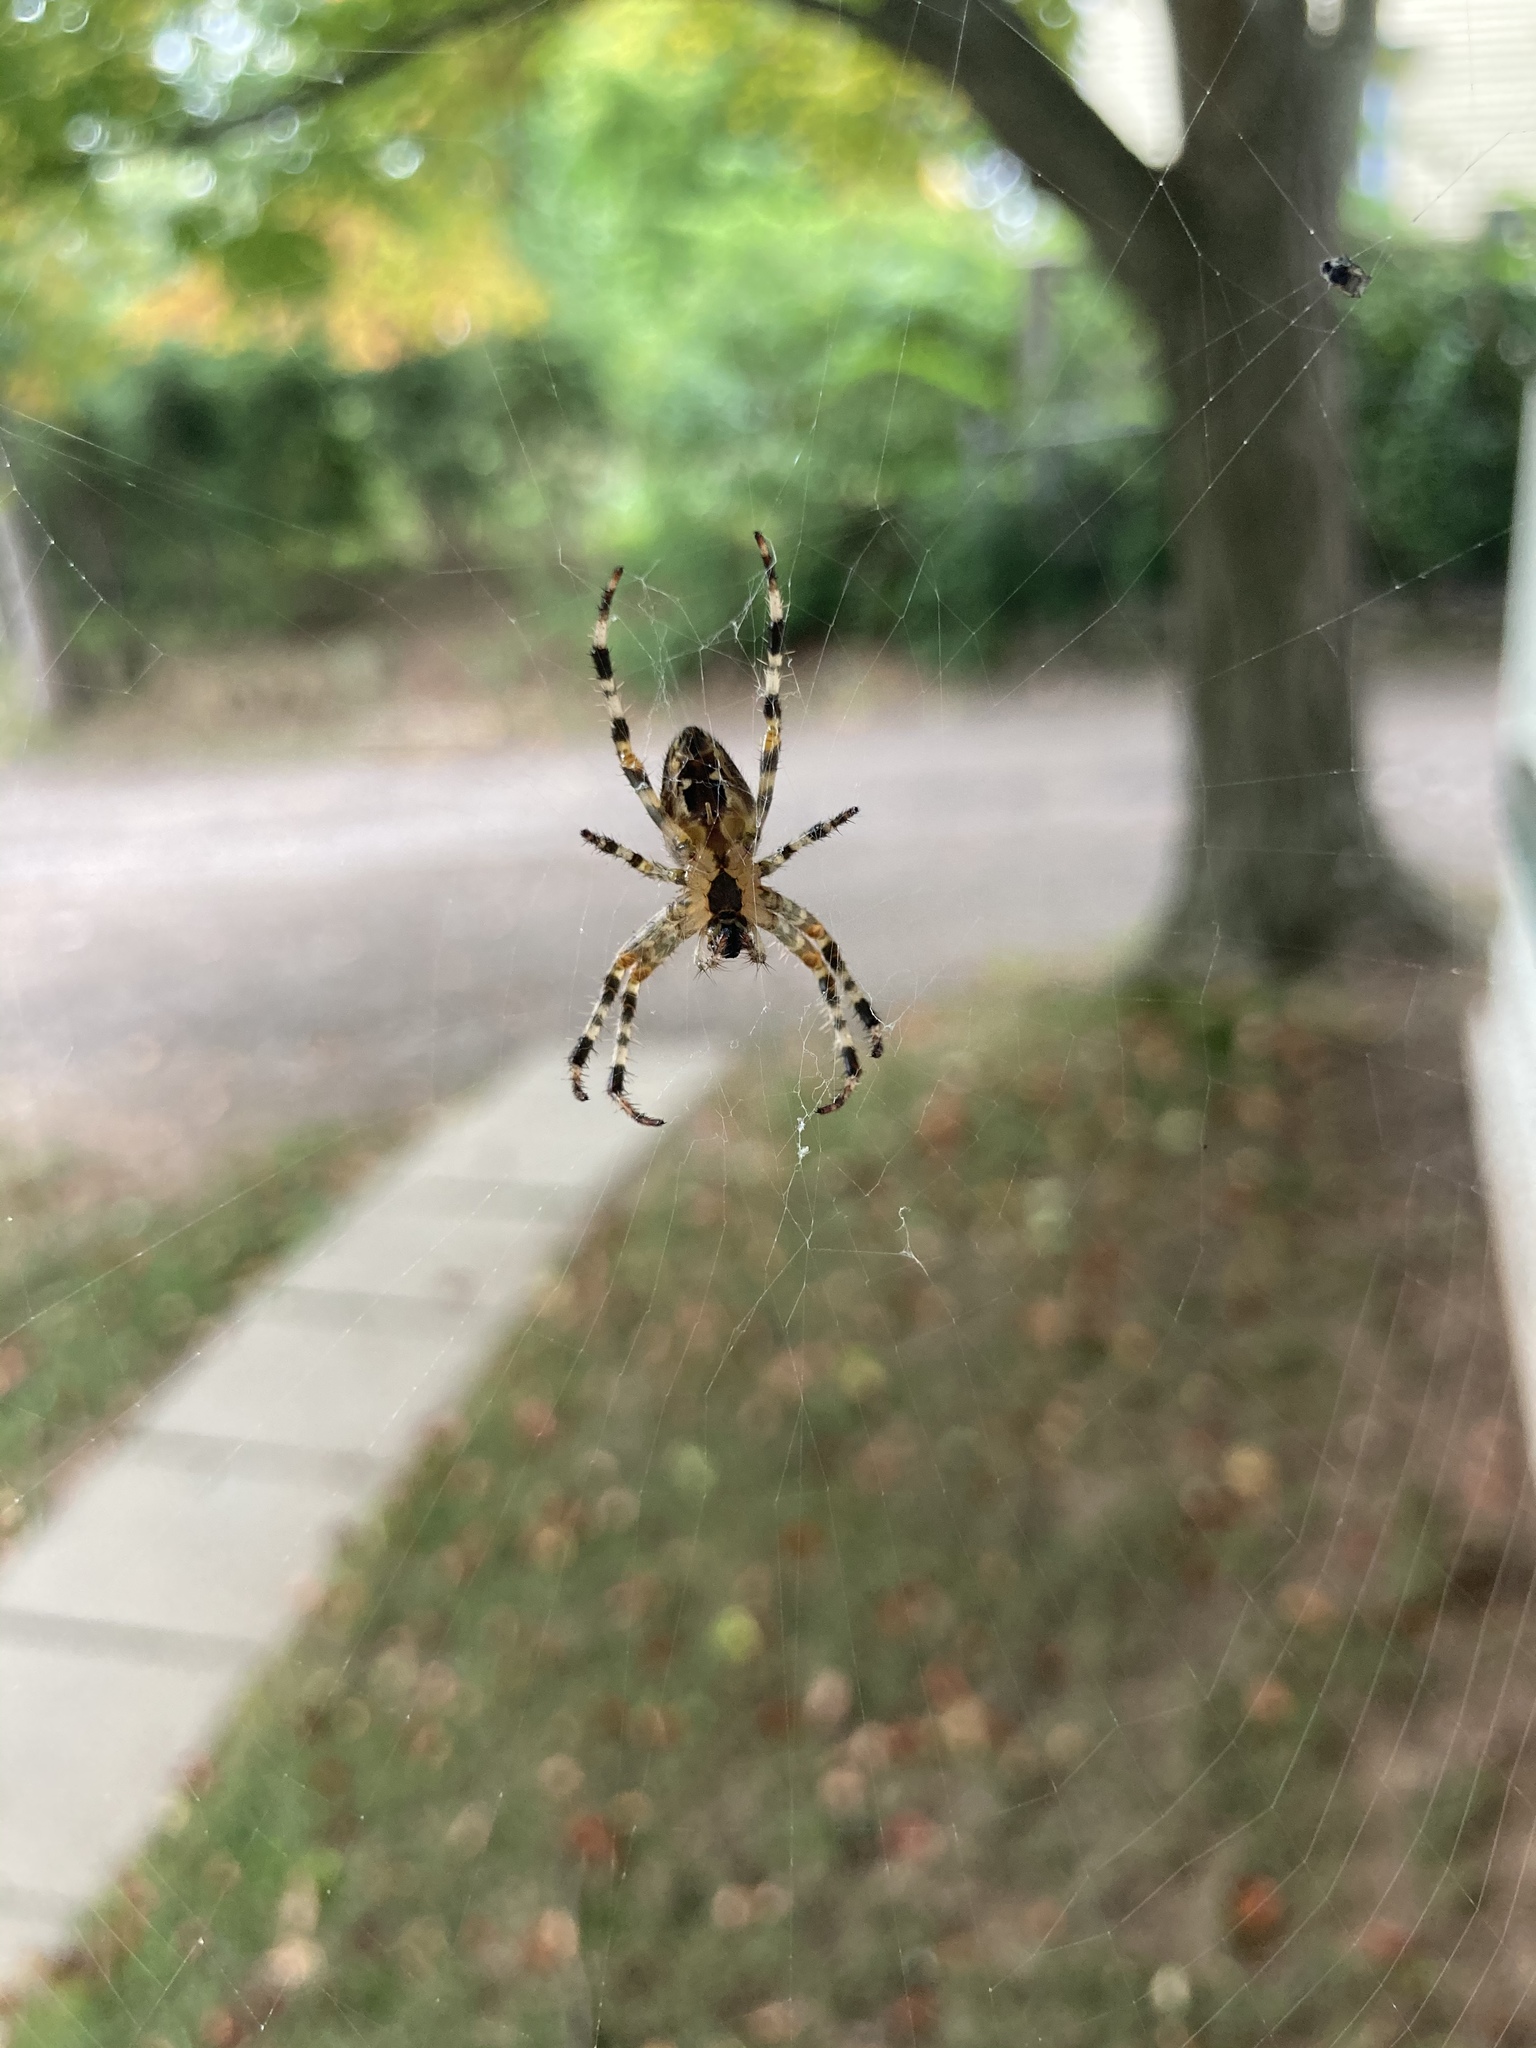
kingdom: Animalia
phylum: Arthropoda
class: Arachnida
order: Araneae
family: Araneidae
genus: Araneus
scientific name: Araneus diadematus
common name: Cross orbweaver
